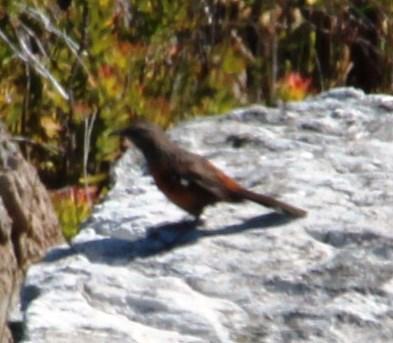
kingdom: Animalia
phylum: Chordata
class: Aves
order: Passeriformes
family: Chaetopidae
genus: Chaetops
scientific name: Chaetops frenatus
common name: Cape rockjumper
